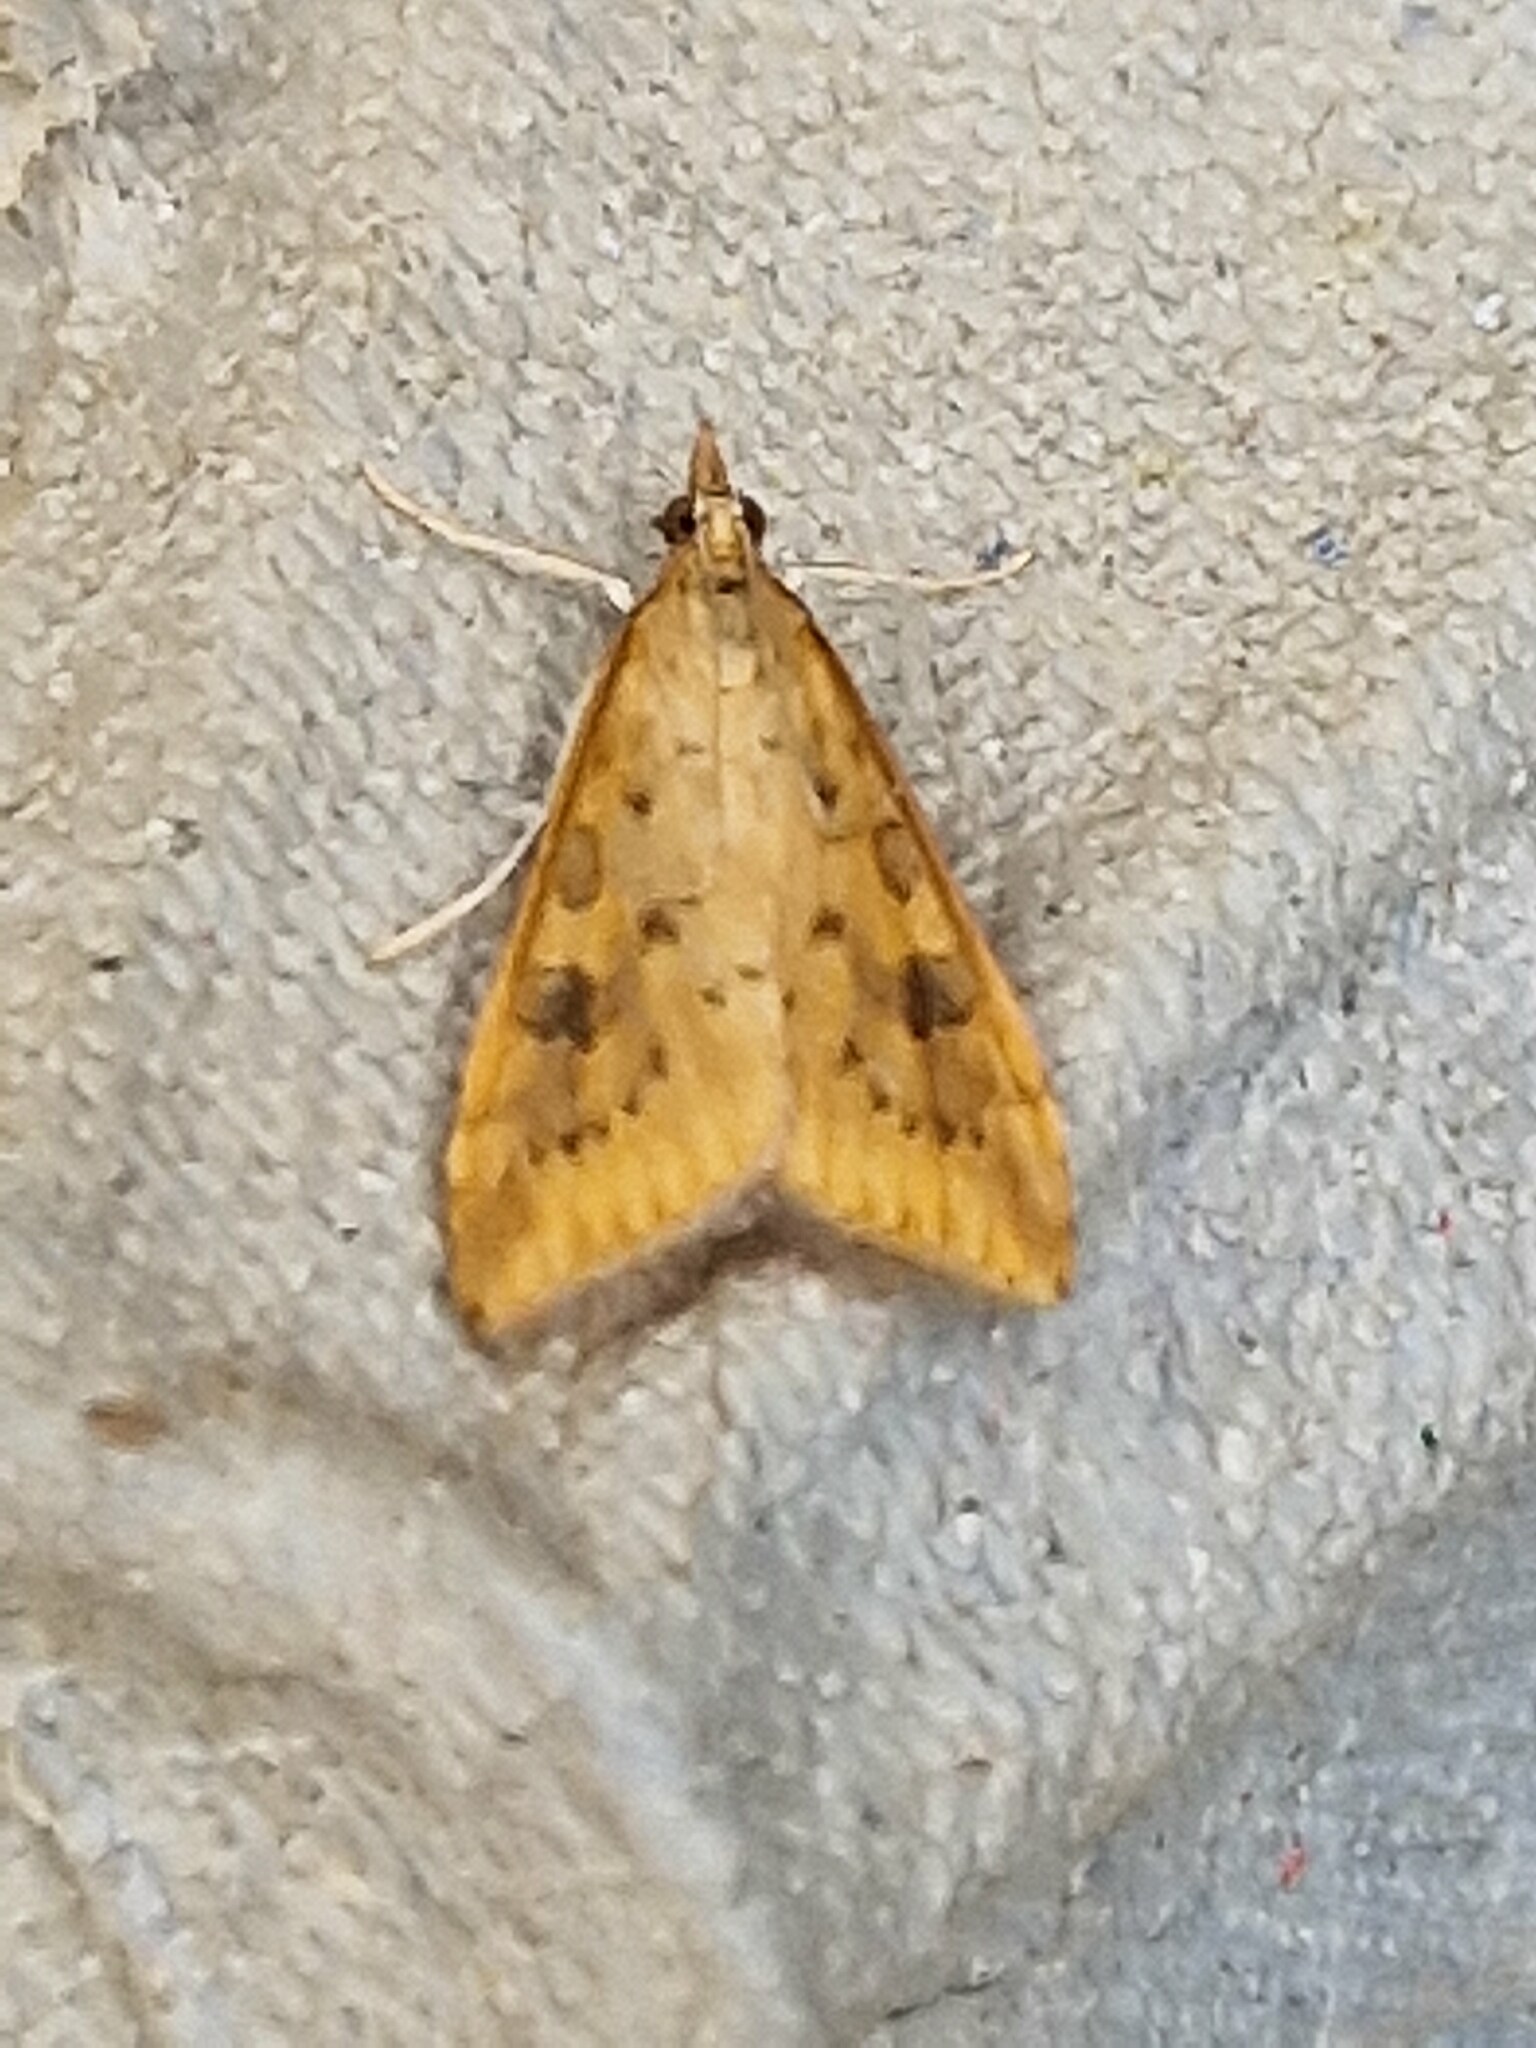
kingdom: Animalia
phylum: Arthropoda
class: Insecta
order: Lepidoptera
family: Crambidae
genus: Udea
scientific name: Udea ferrugalis
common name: Rusty dot
